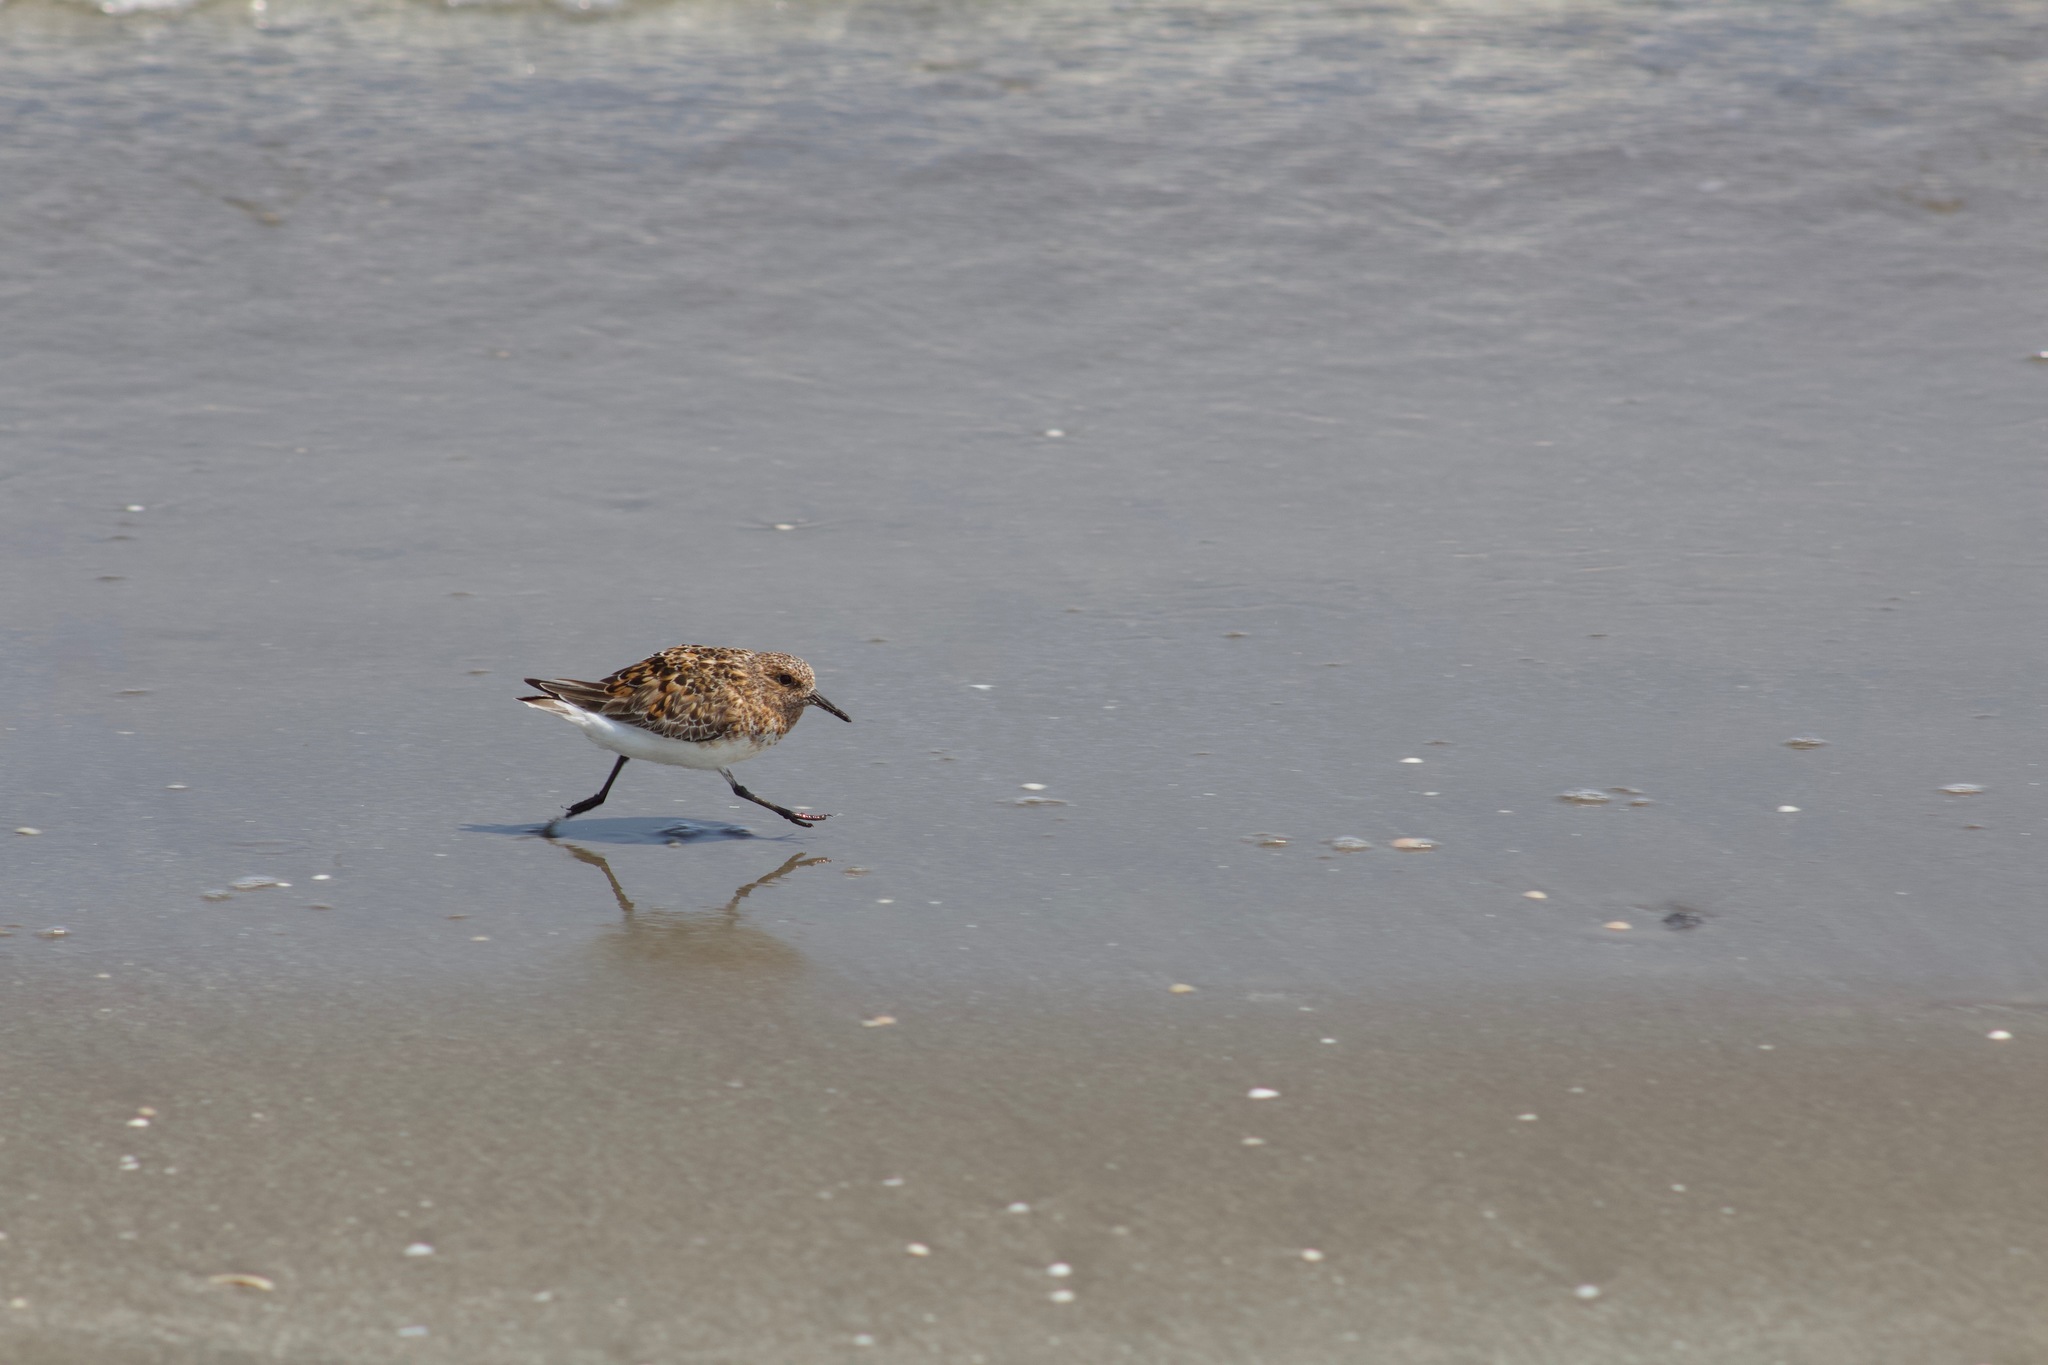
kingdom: Animalia
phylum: Chordata
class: Aves
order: Charadriiformes
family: Scolopacidae
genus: Calidris
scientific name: Calidris alba
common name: Sanderling
